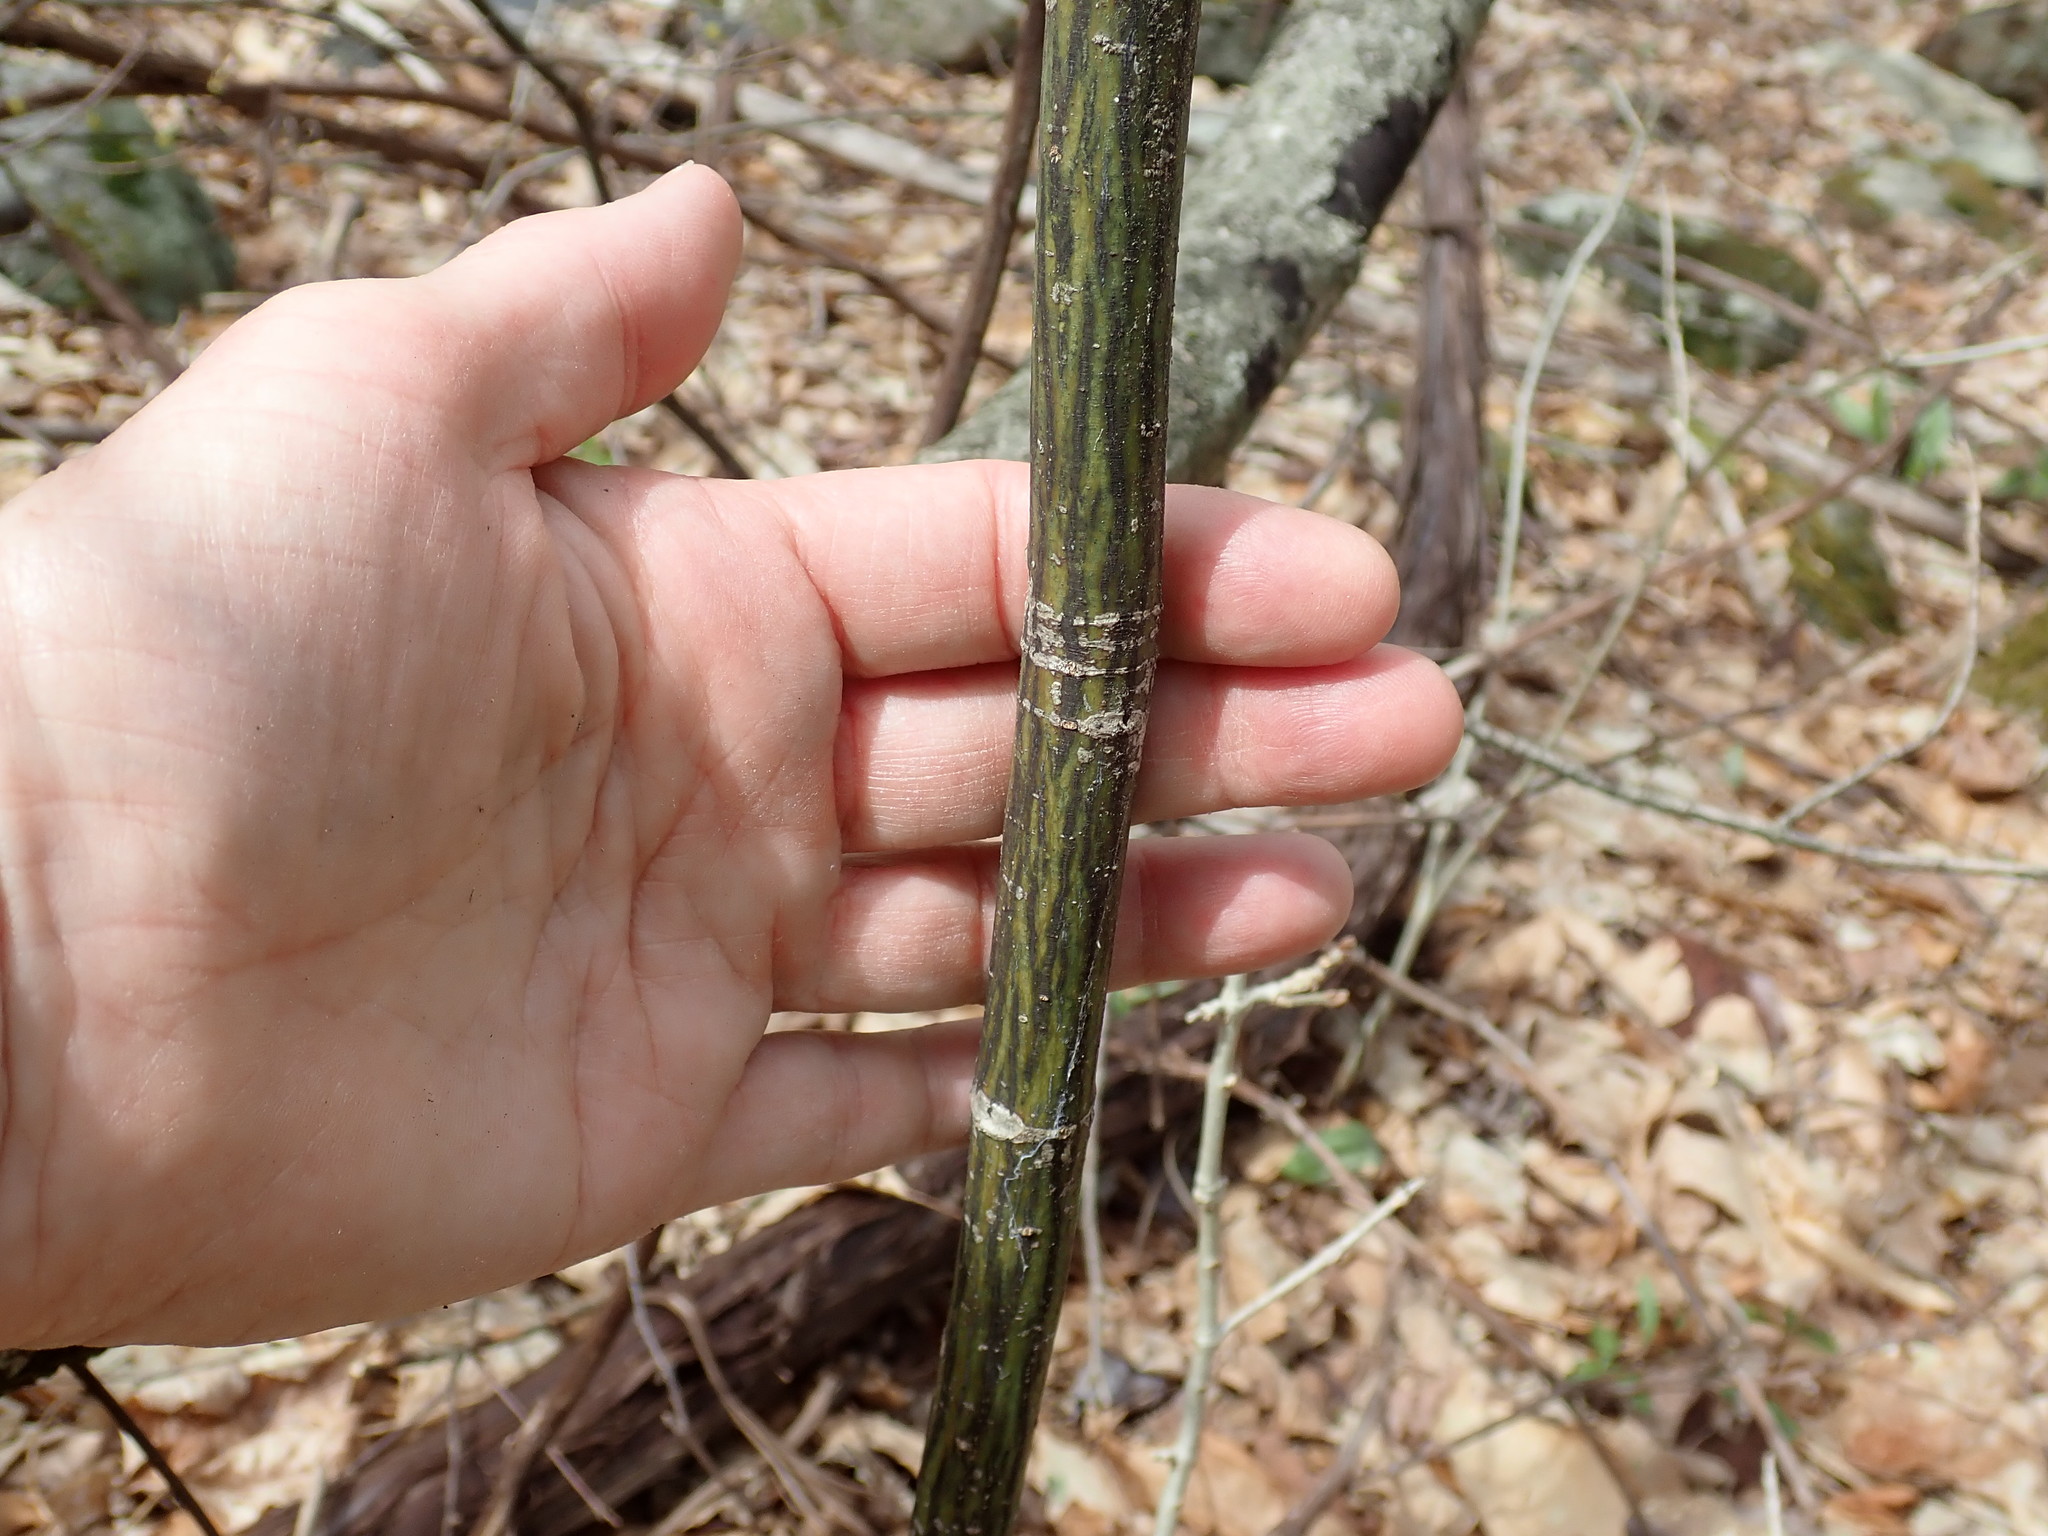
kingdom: Plantae
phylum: Tracheophyta
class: Magnoliopsida
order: Sapindales
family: Sapindaceae
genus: Acer
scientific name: Acer pensylvanicum
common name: Moosewood
